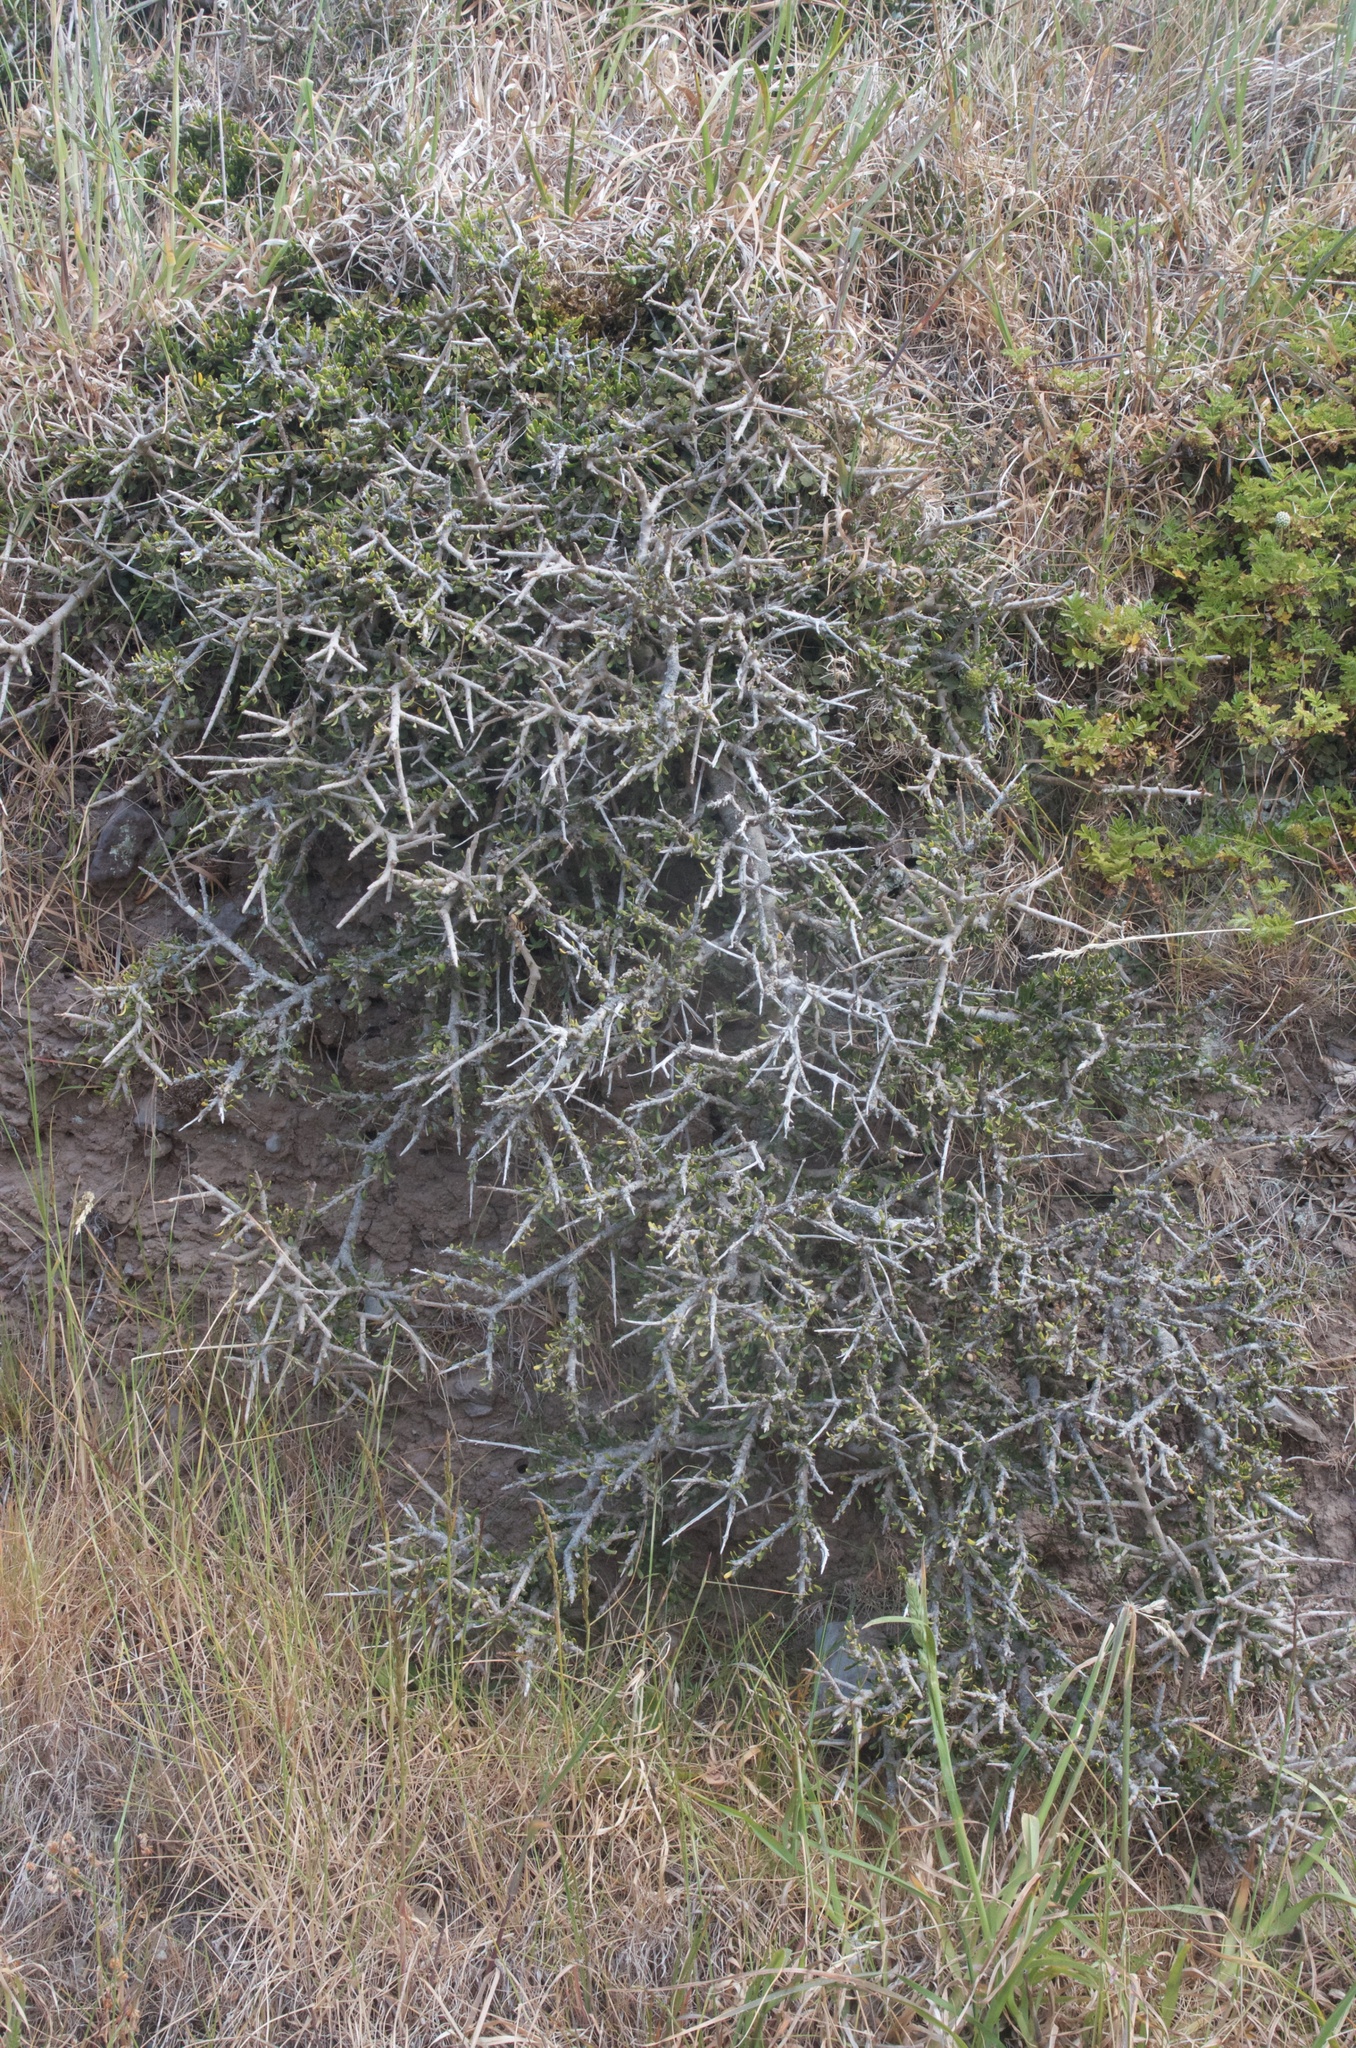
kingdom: Plantae
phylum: Tracheophyta
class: Magnoliopsida
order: Malpighiales
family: Violaceae
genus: Melicytus
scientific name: Melicytus alpinus
